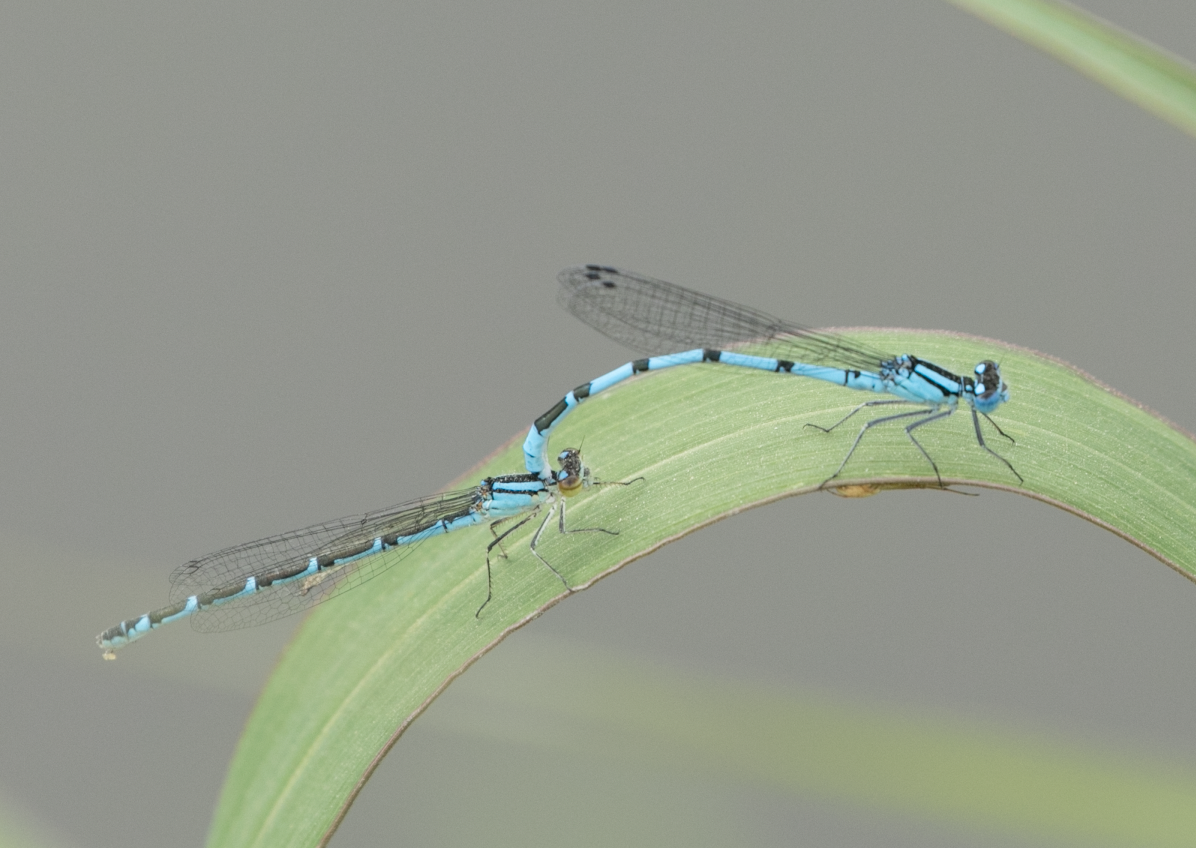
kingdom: Animalia
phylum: Arthropoda
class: Insecta
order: Odonata
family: Coenagrionidae
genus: Enallagma
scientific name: Enallagma cyathigerum
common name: Common blue damselfly
